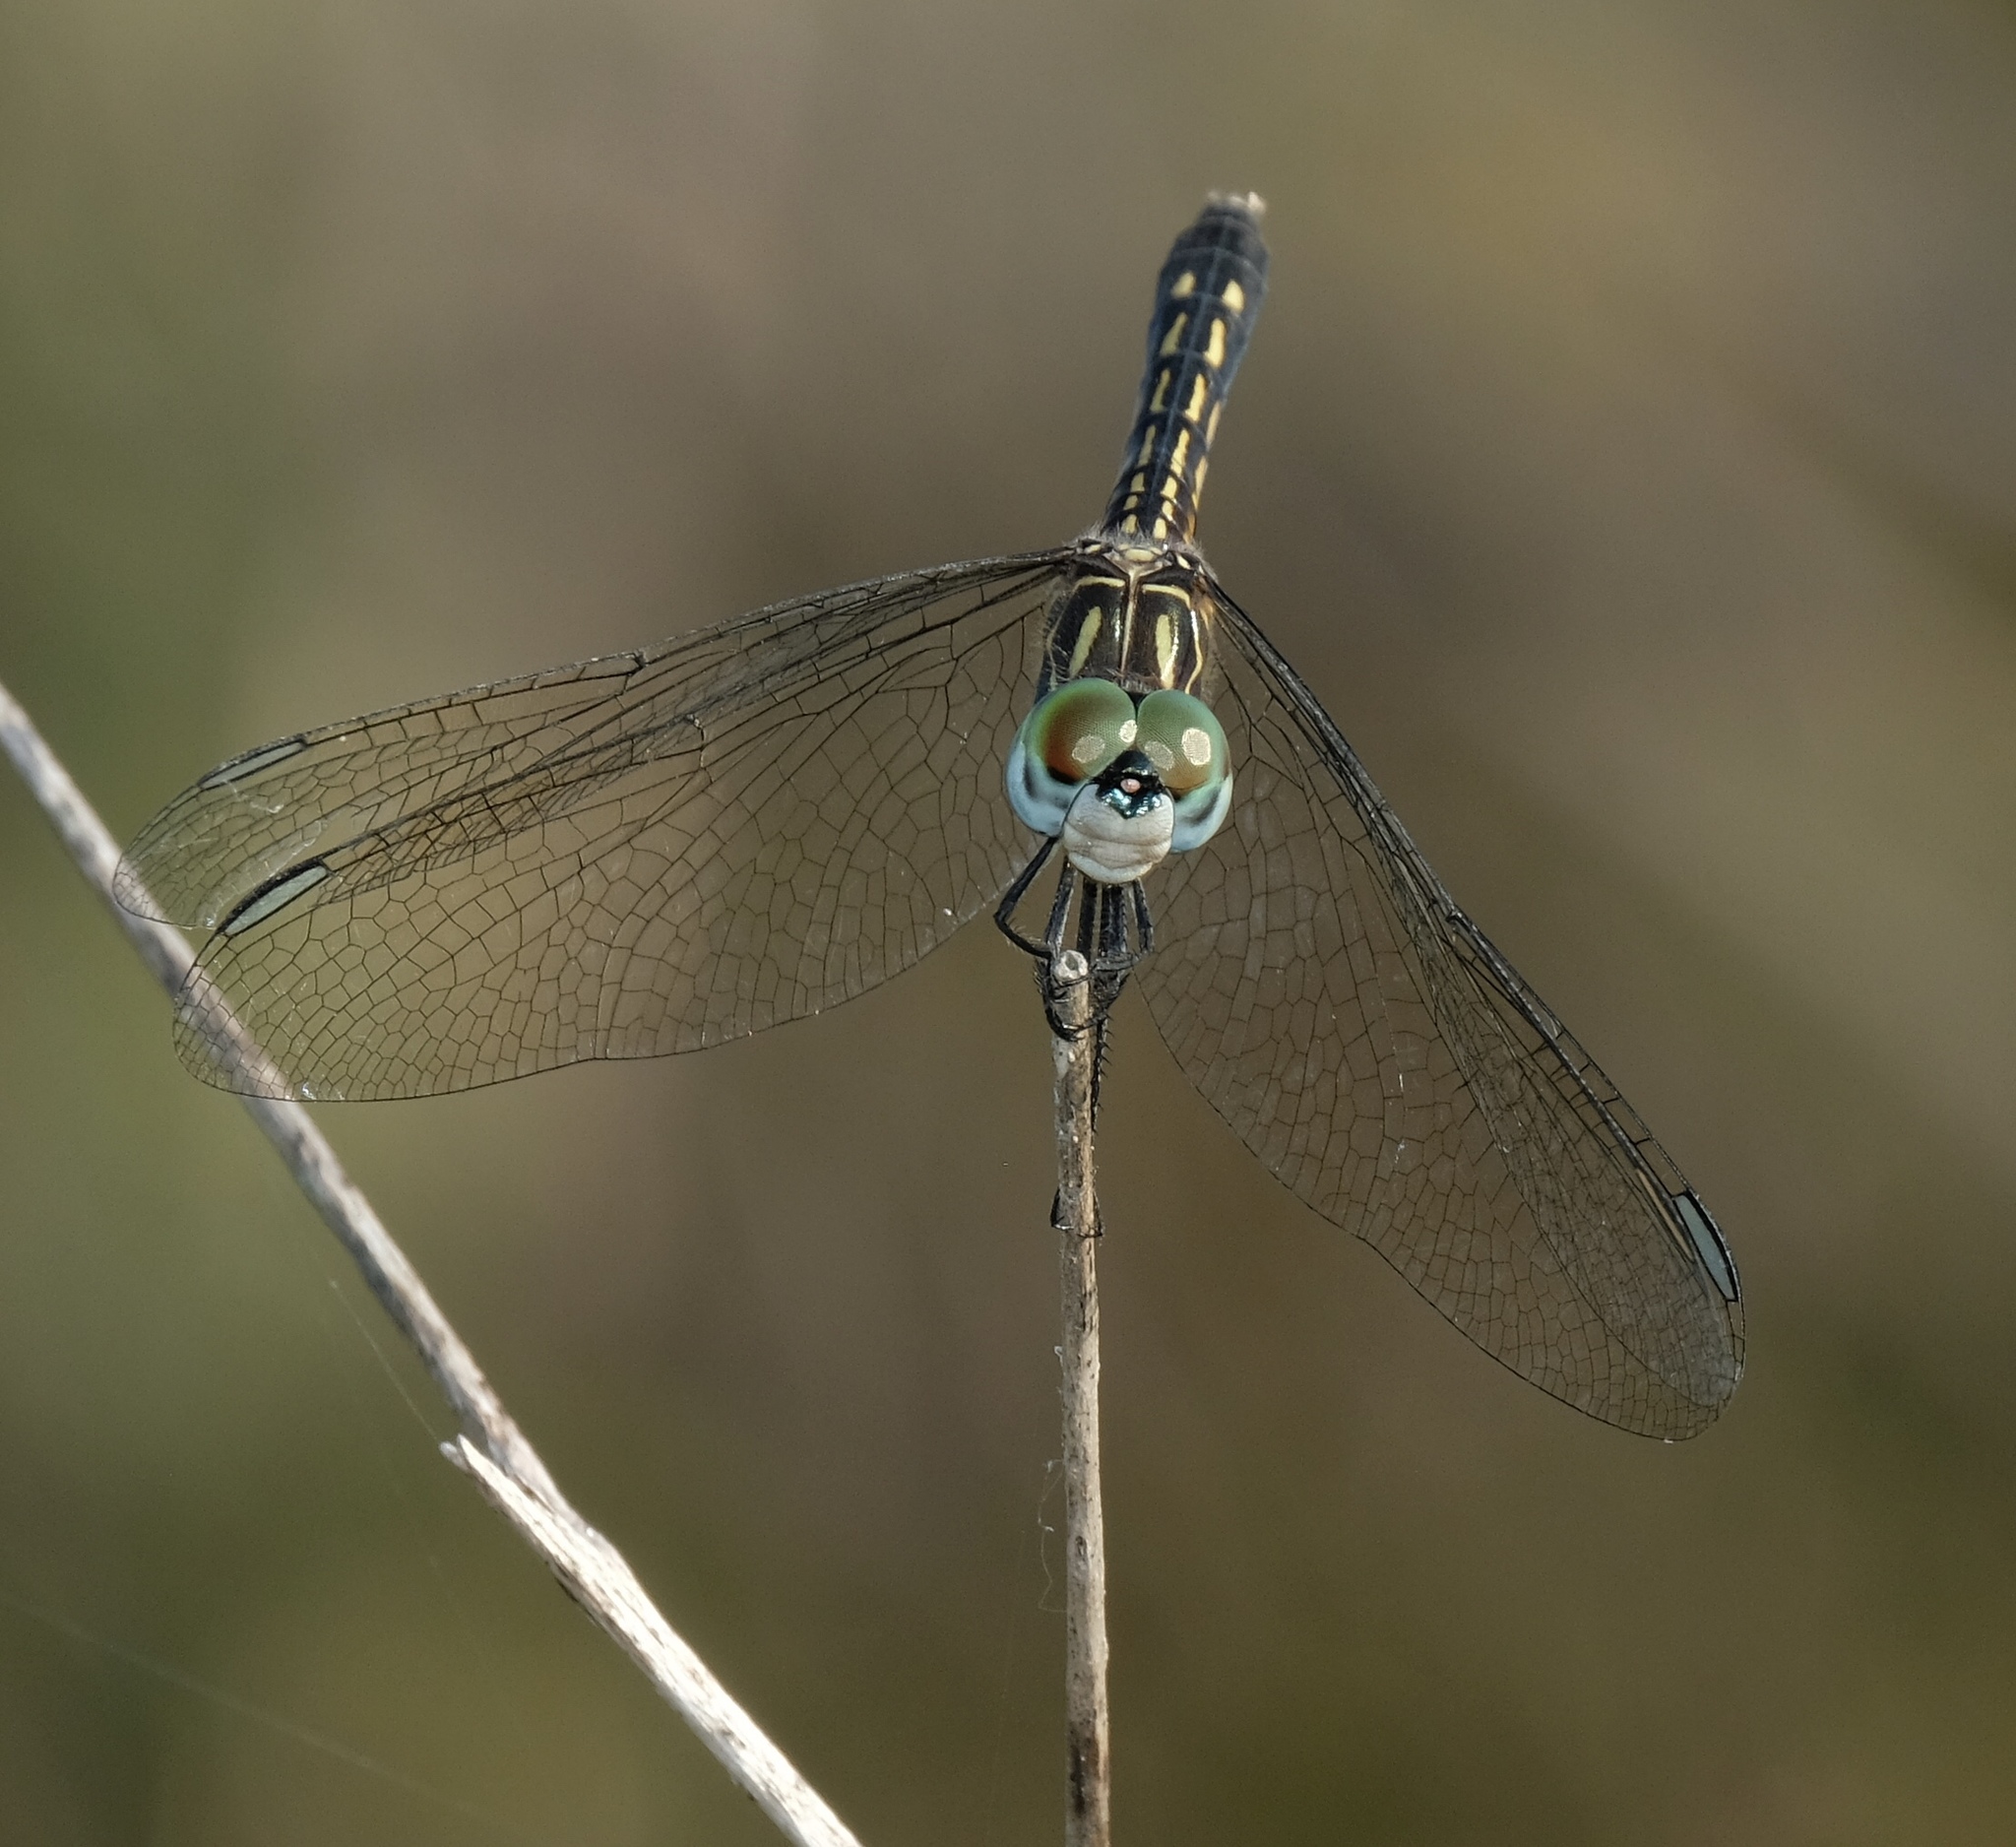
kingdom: Animalia
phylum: Arthropoda
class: Insecta
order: Odonata
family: Libellulidae
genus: Pachydiplax
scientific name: Pachydiplax longipennis
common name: Blue dasher
